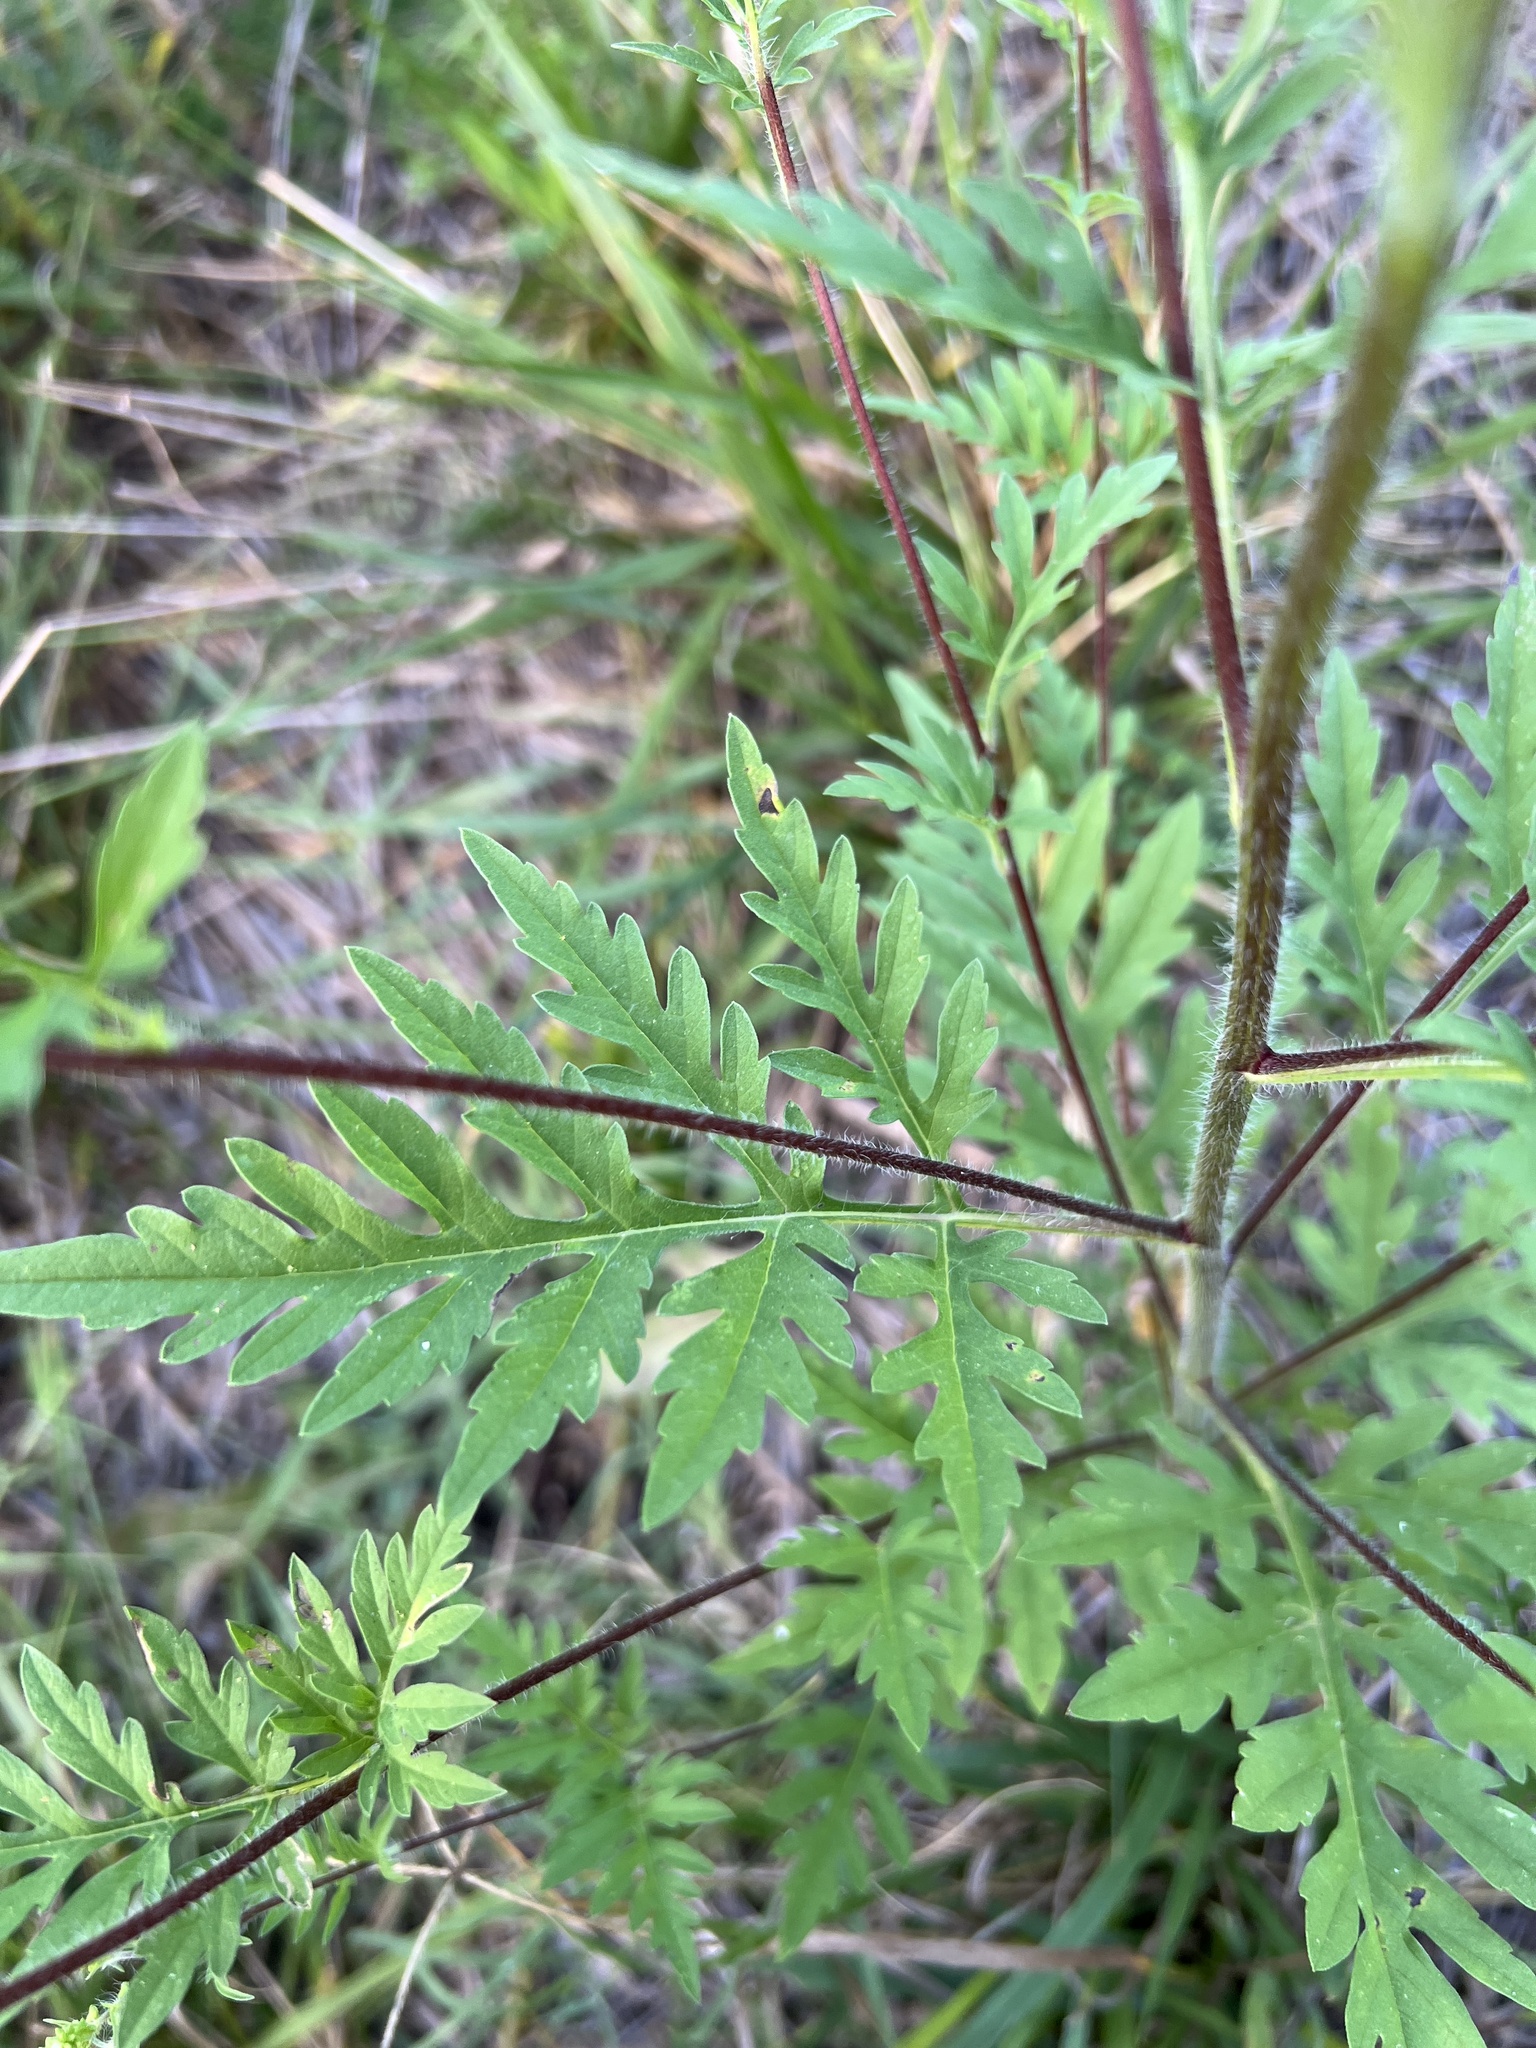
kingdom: Plantae
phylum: Tracheophyta
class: Magnoliopsida
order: Asterales
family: Asteraceae
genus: Ambrosia
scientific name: Ambrosia artemisiifolia
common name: Annual ragweed
